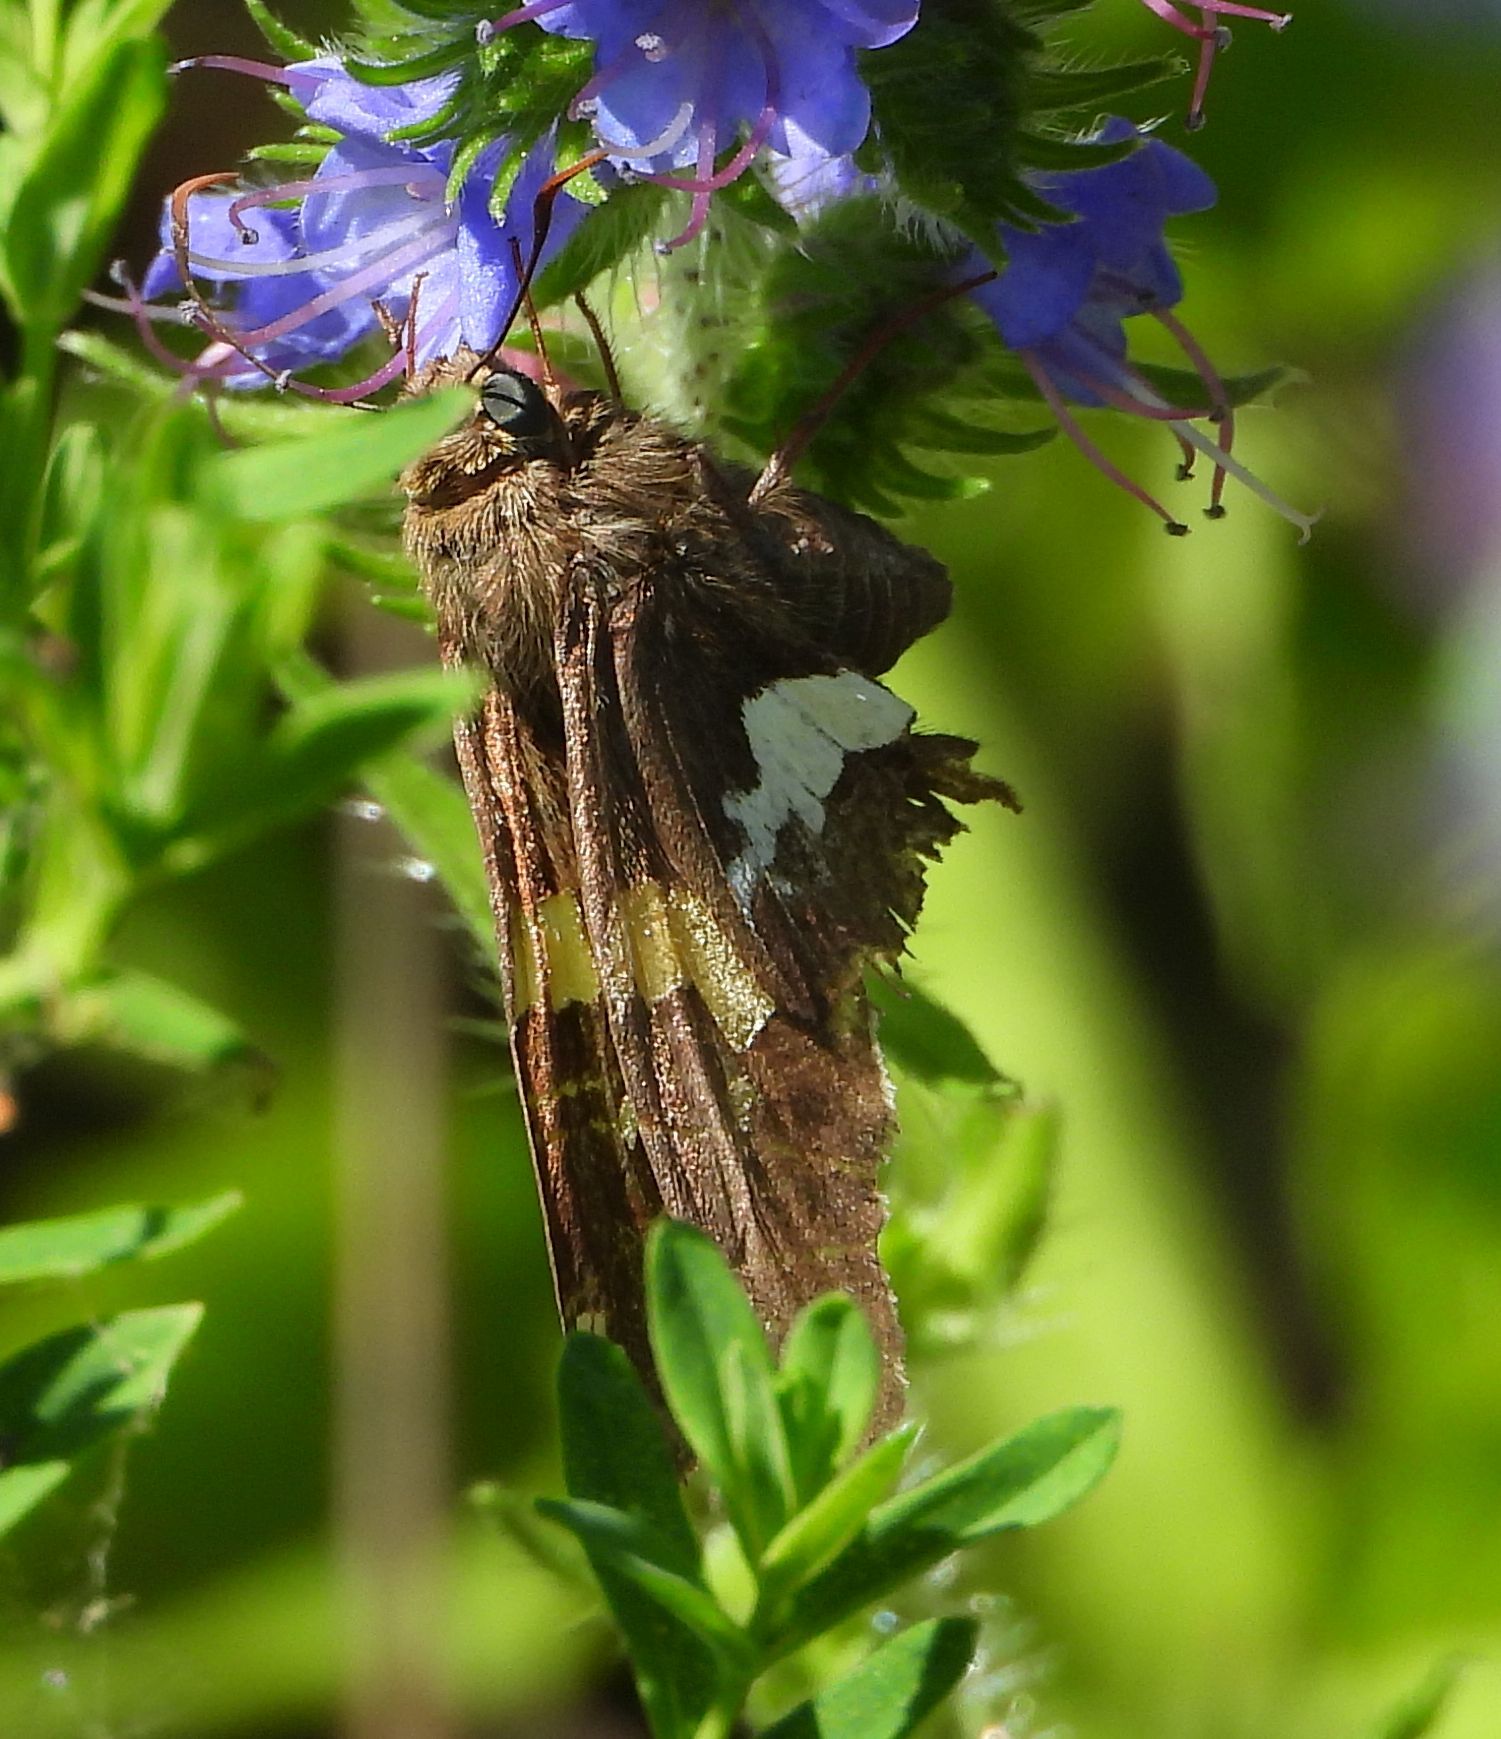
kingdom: Animalia
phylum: Arthropoda
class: Insecta
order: Lepidoptera
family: Hesperiidae
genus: Epargyreus
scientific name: Epargyreus clarus
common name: Silver-spotted skipper
